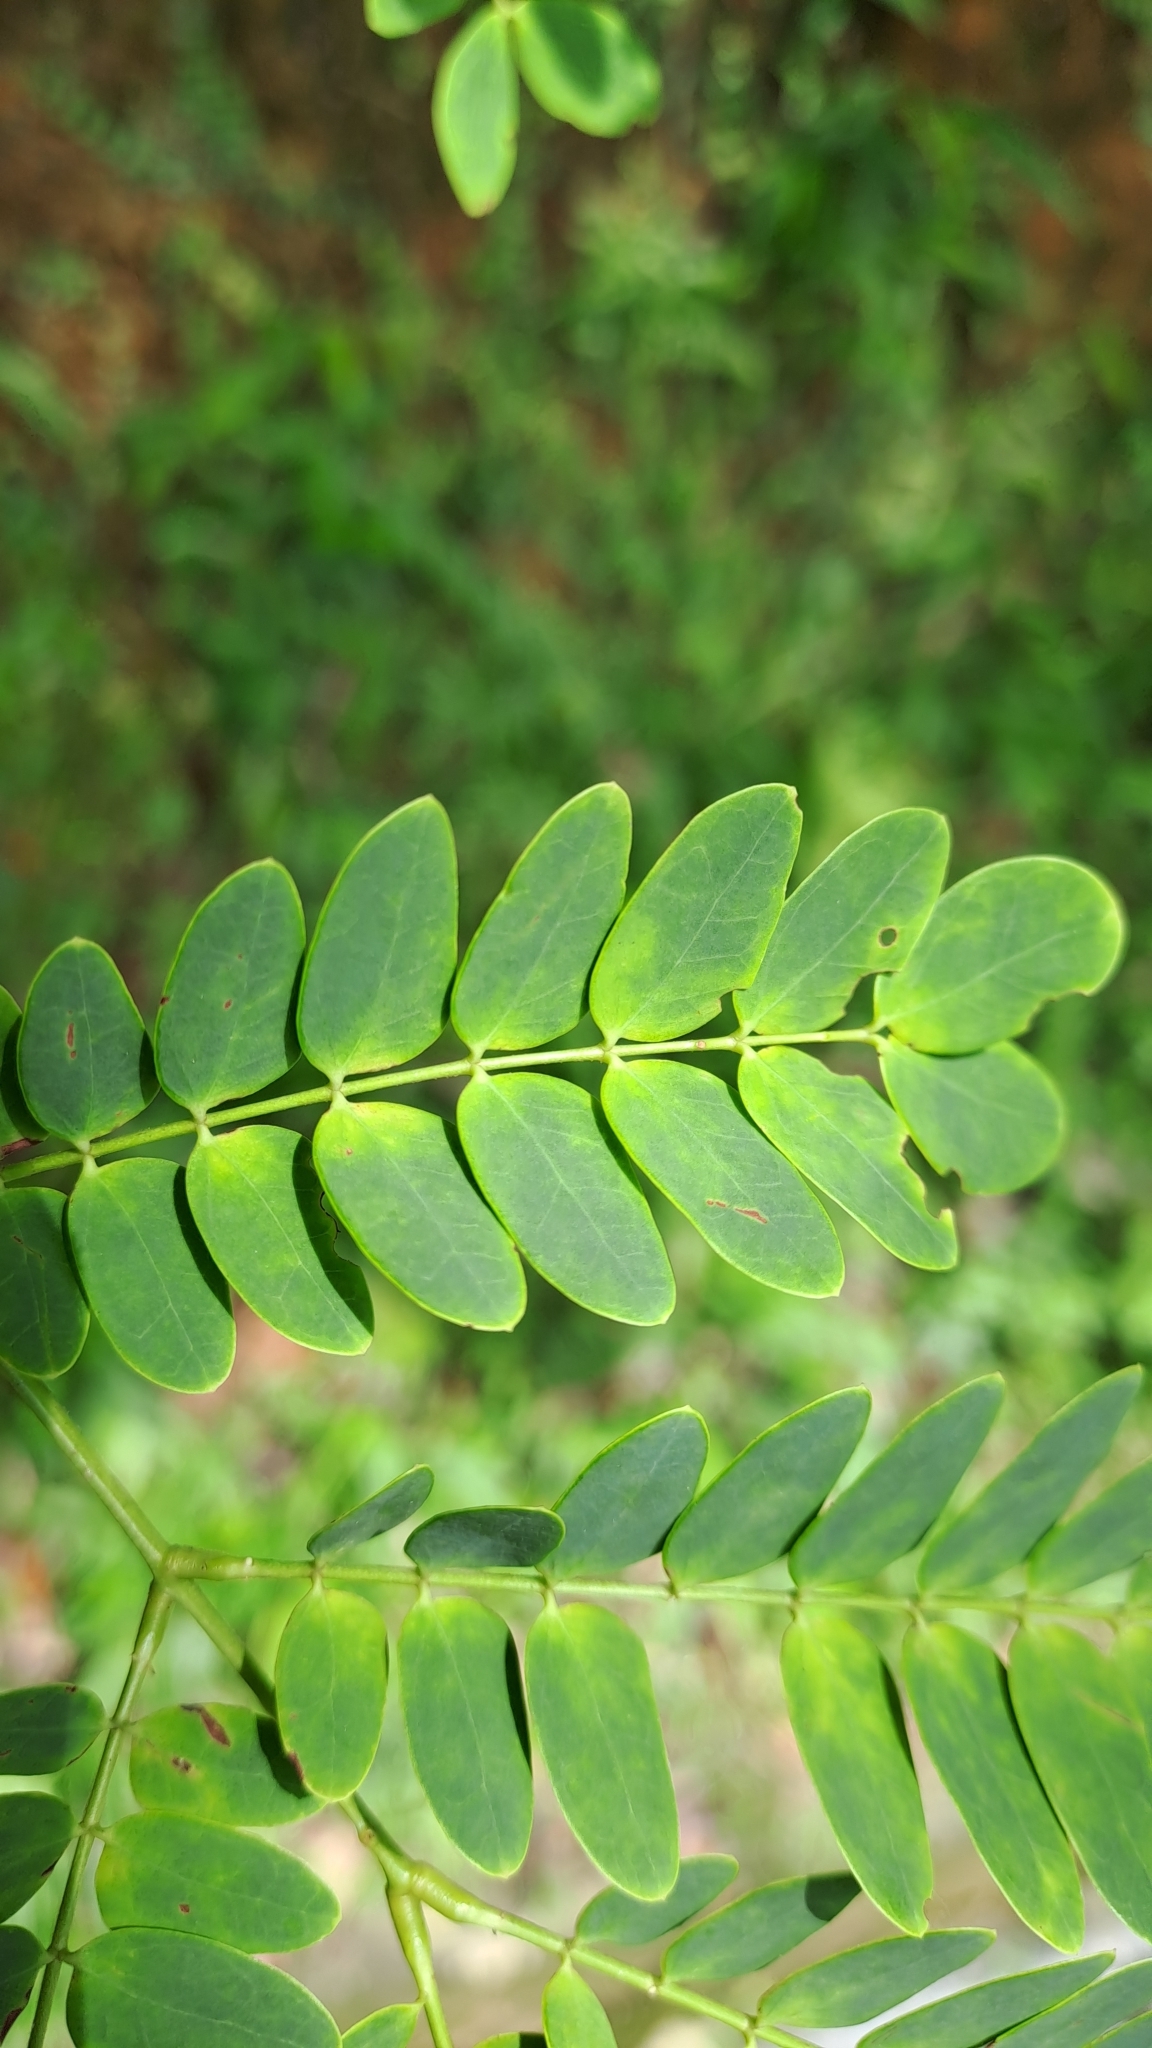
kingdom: Plantae
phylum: Tracheophyta
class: Magnoliopsida
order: Fabales
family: Fabaceae
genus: Albizia
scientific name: Albizia corniculata
